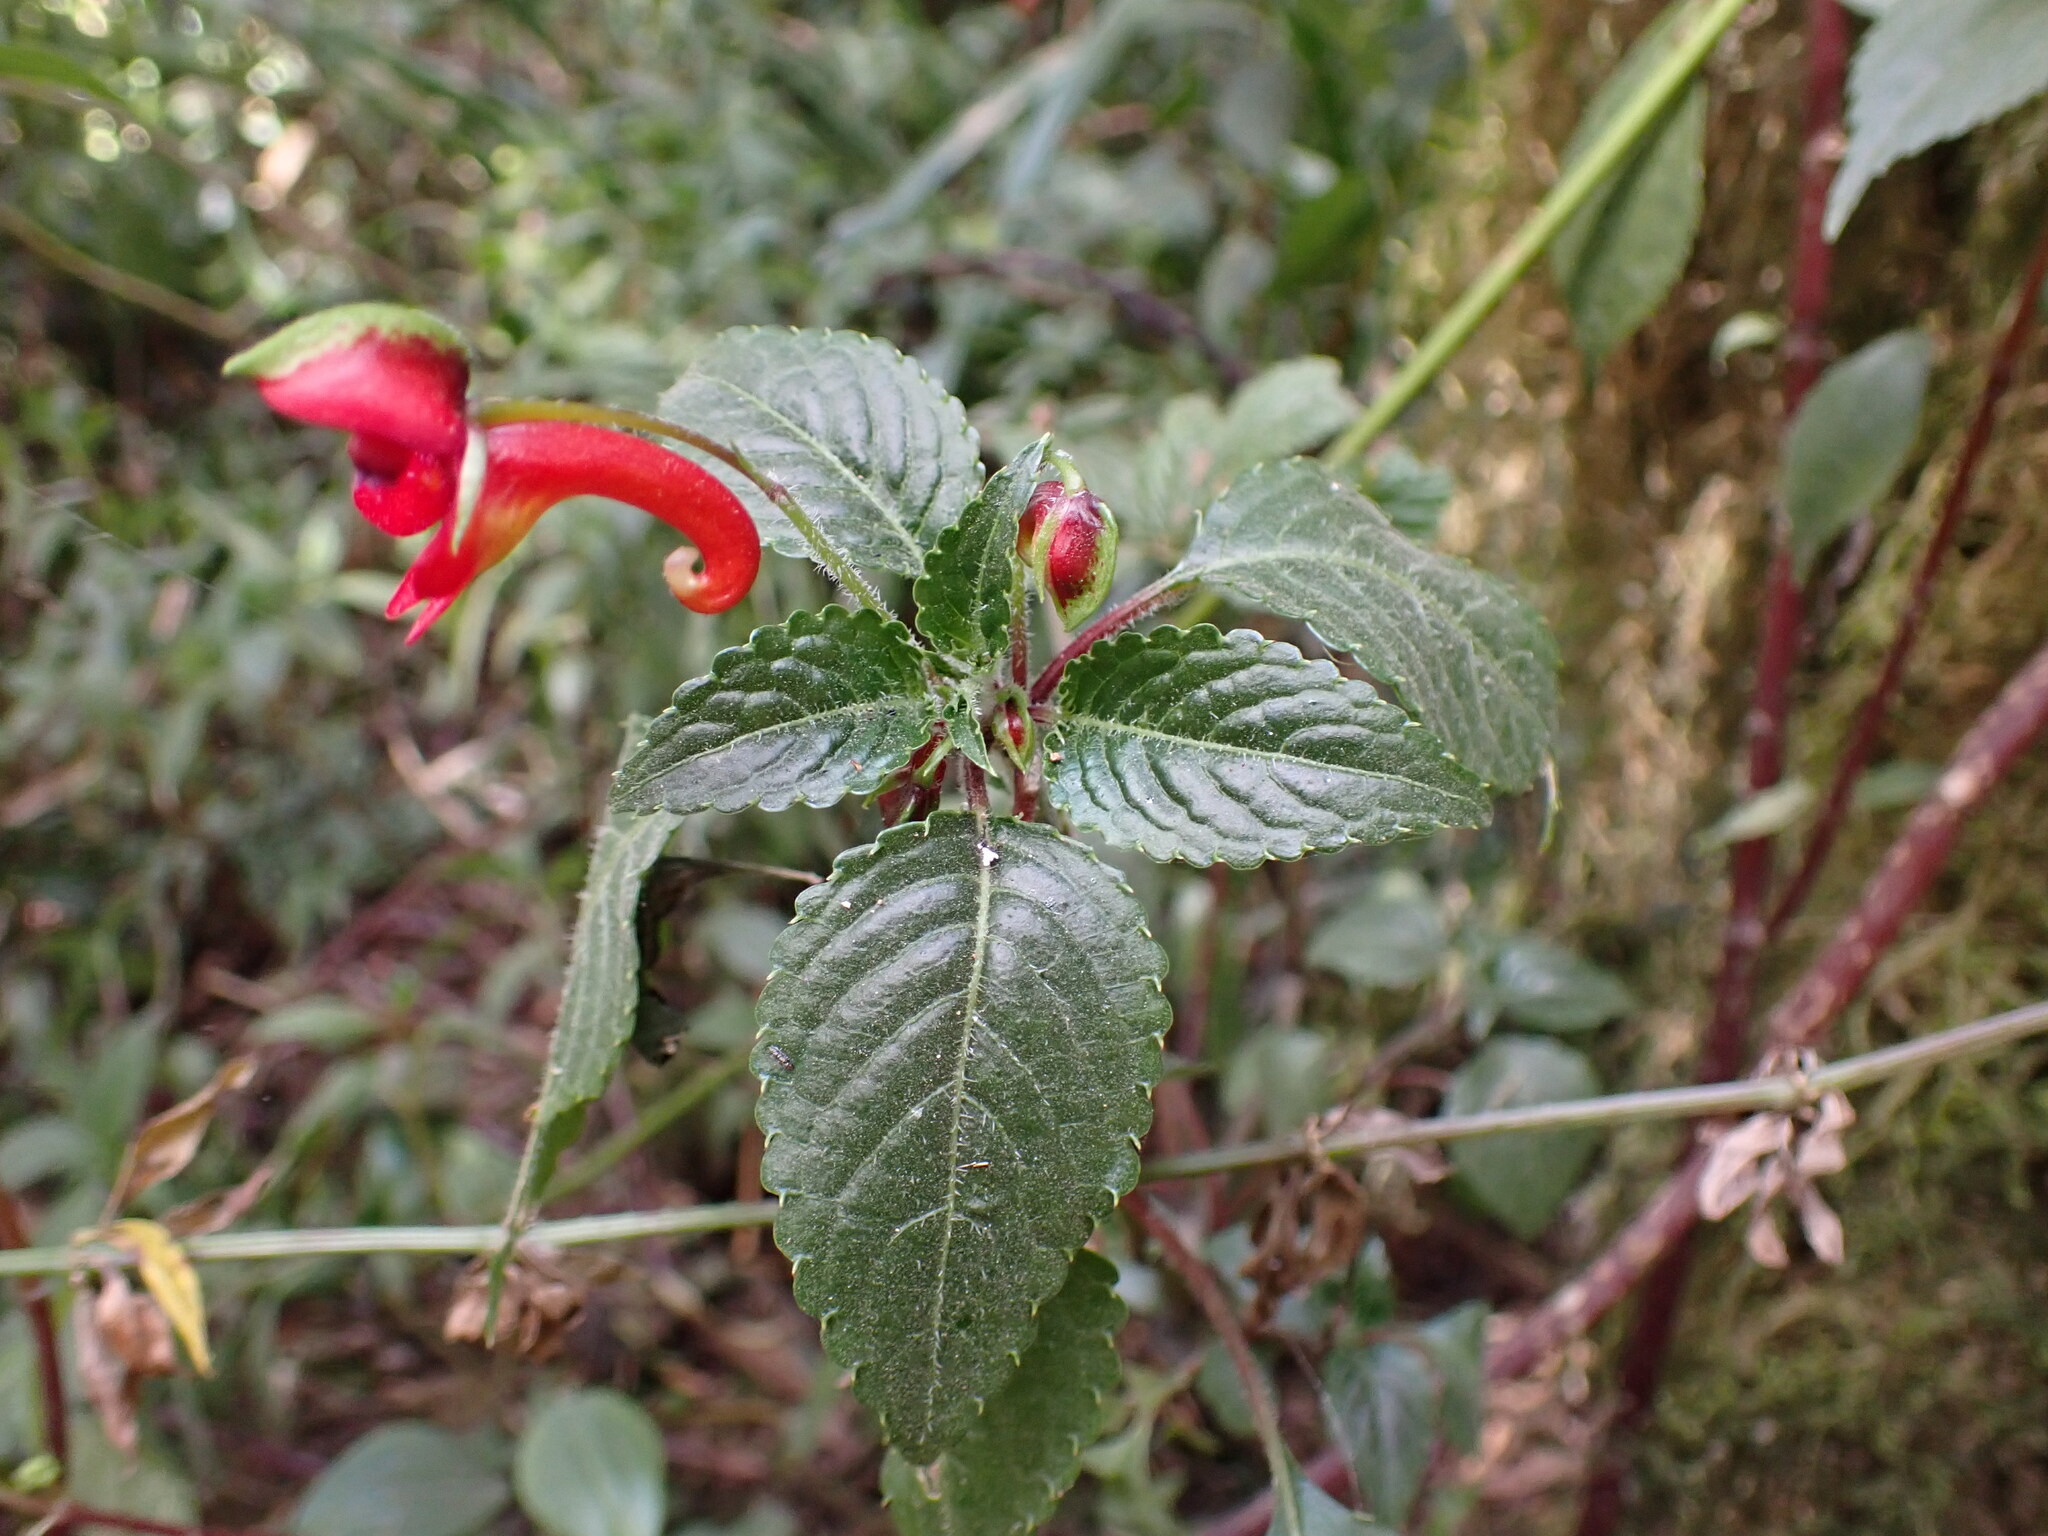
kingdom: Plantae
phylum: Tracheophyta
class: Magnoliopsida
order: Ericales
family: Balsaminaceae
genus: Impatiens
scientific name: Impatiens kilimanjari
